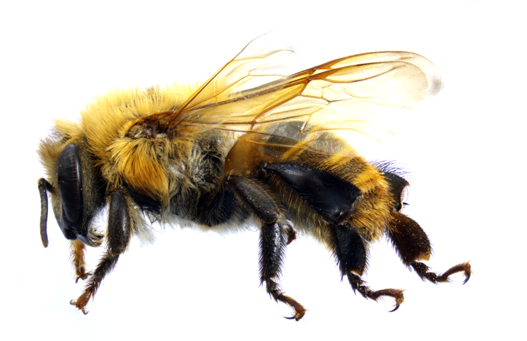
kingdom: Animalia
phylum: Arthropoda
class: Insecta
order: Hymenoptera
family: Apidae
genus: Melipona
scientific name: Melipona eburnea
